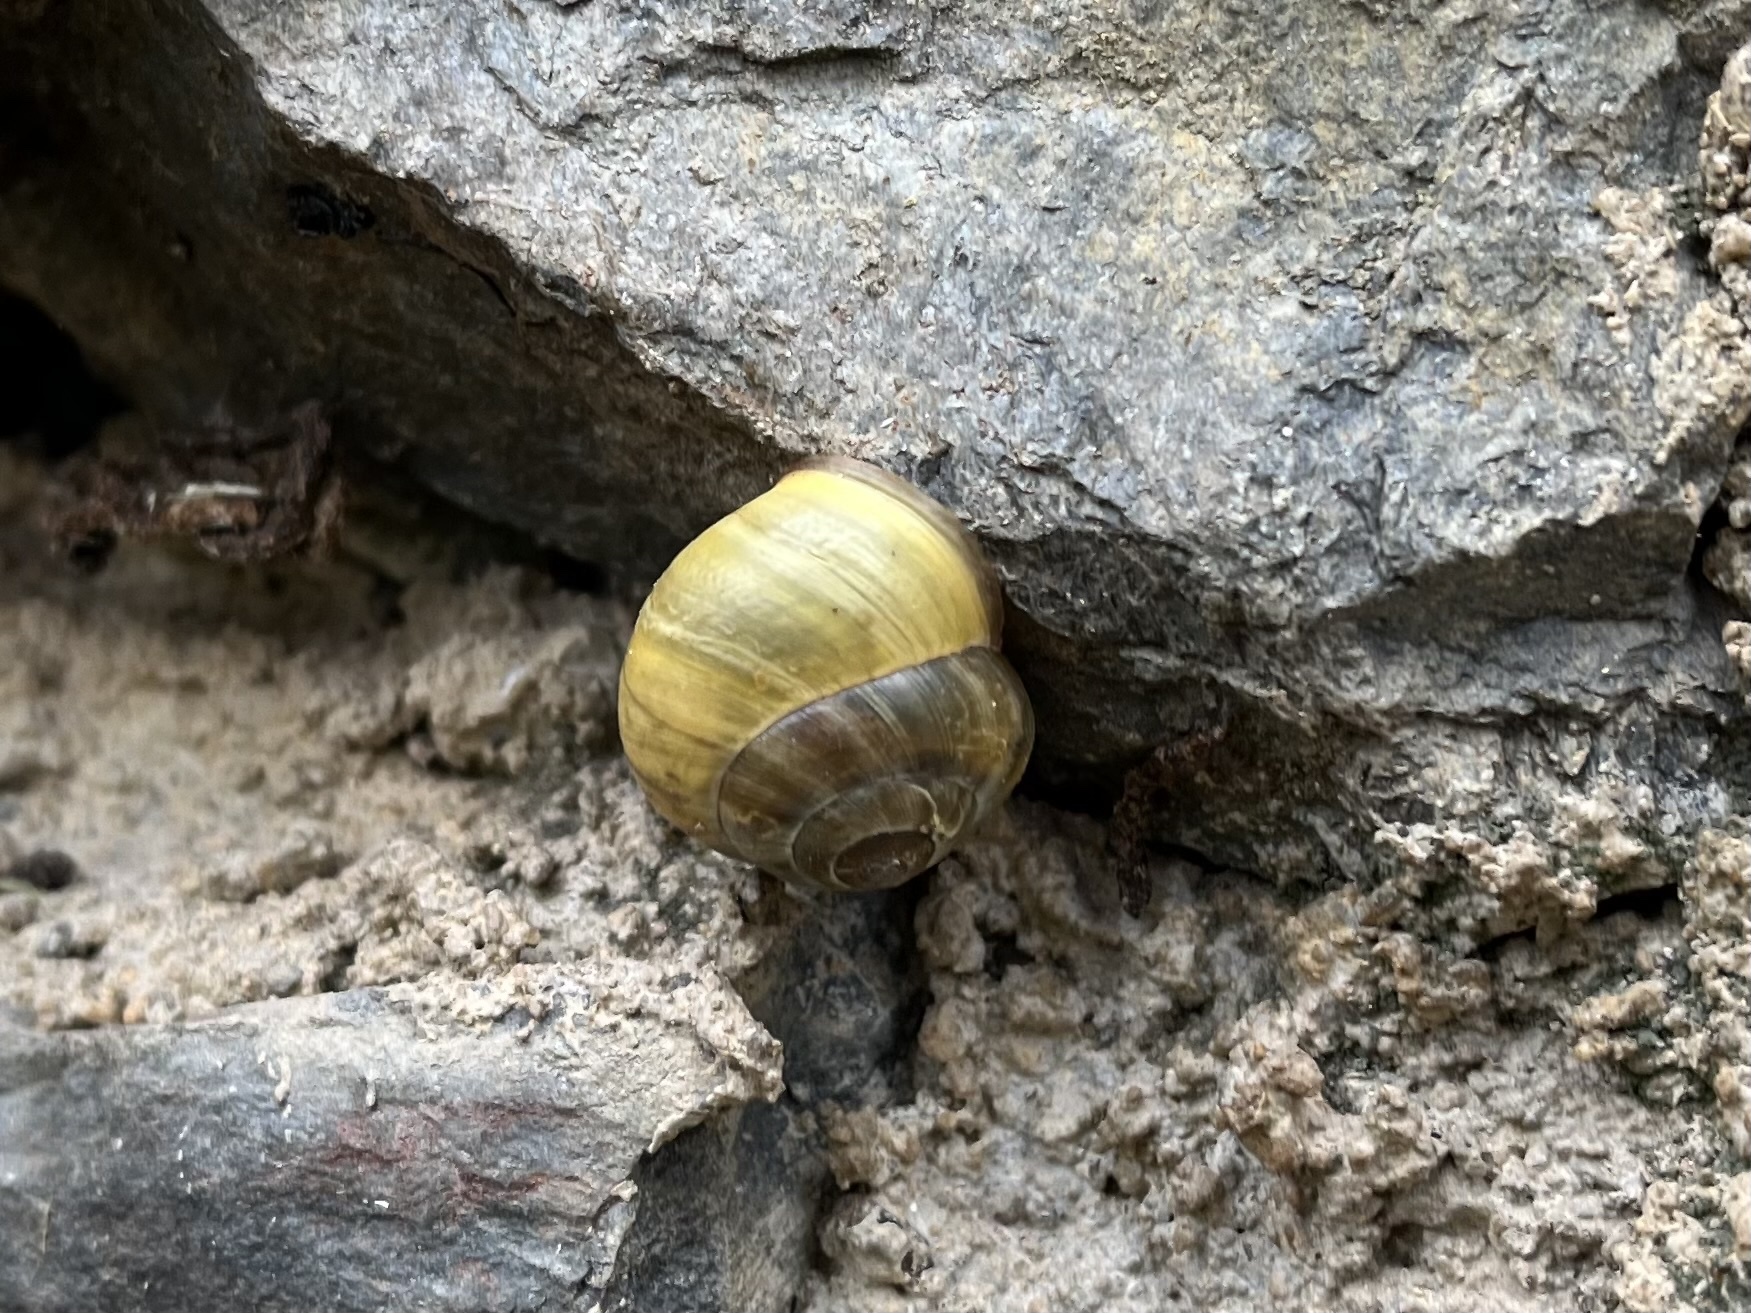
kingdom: Animalia
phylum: Mollusca
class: Gastropoda
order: Stylommatophora
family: Helicidae
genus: Cepaea
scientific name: Cepaea nemoralis
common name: Grovesnail
